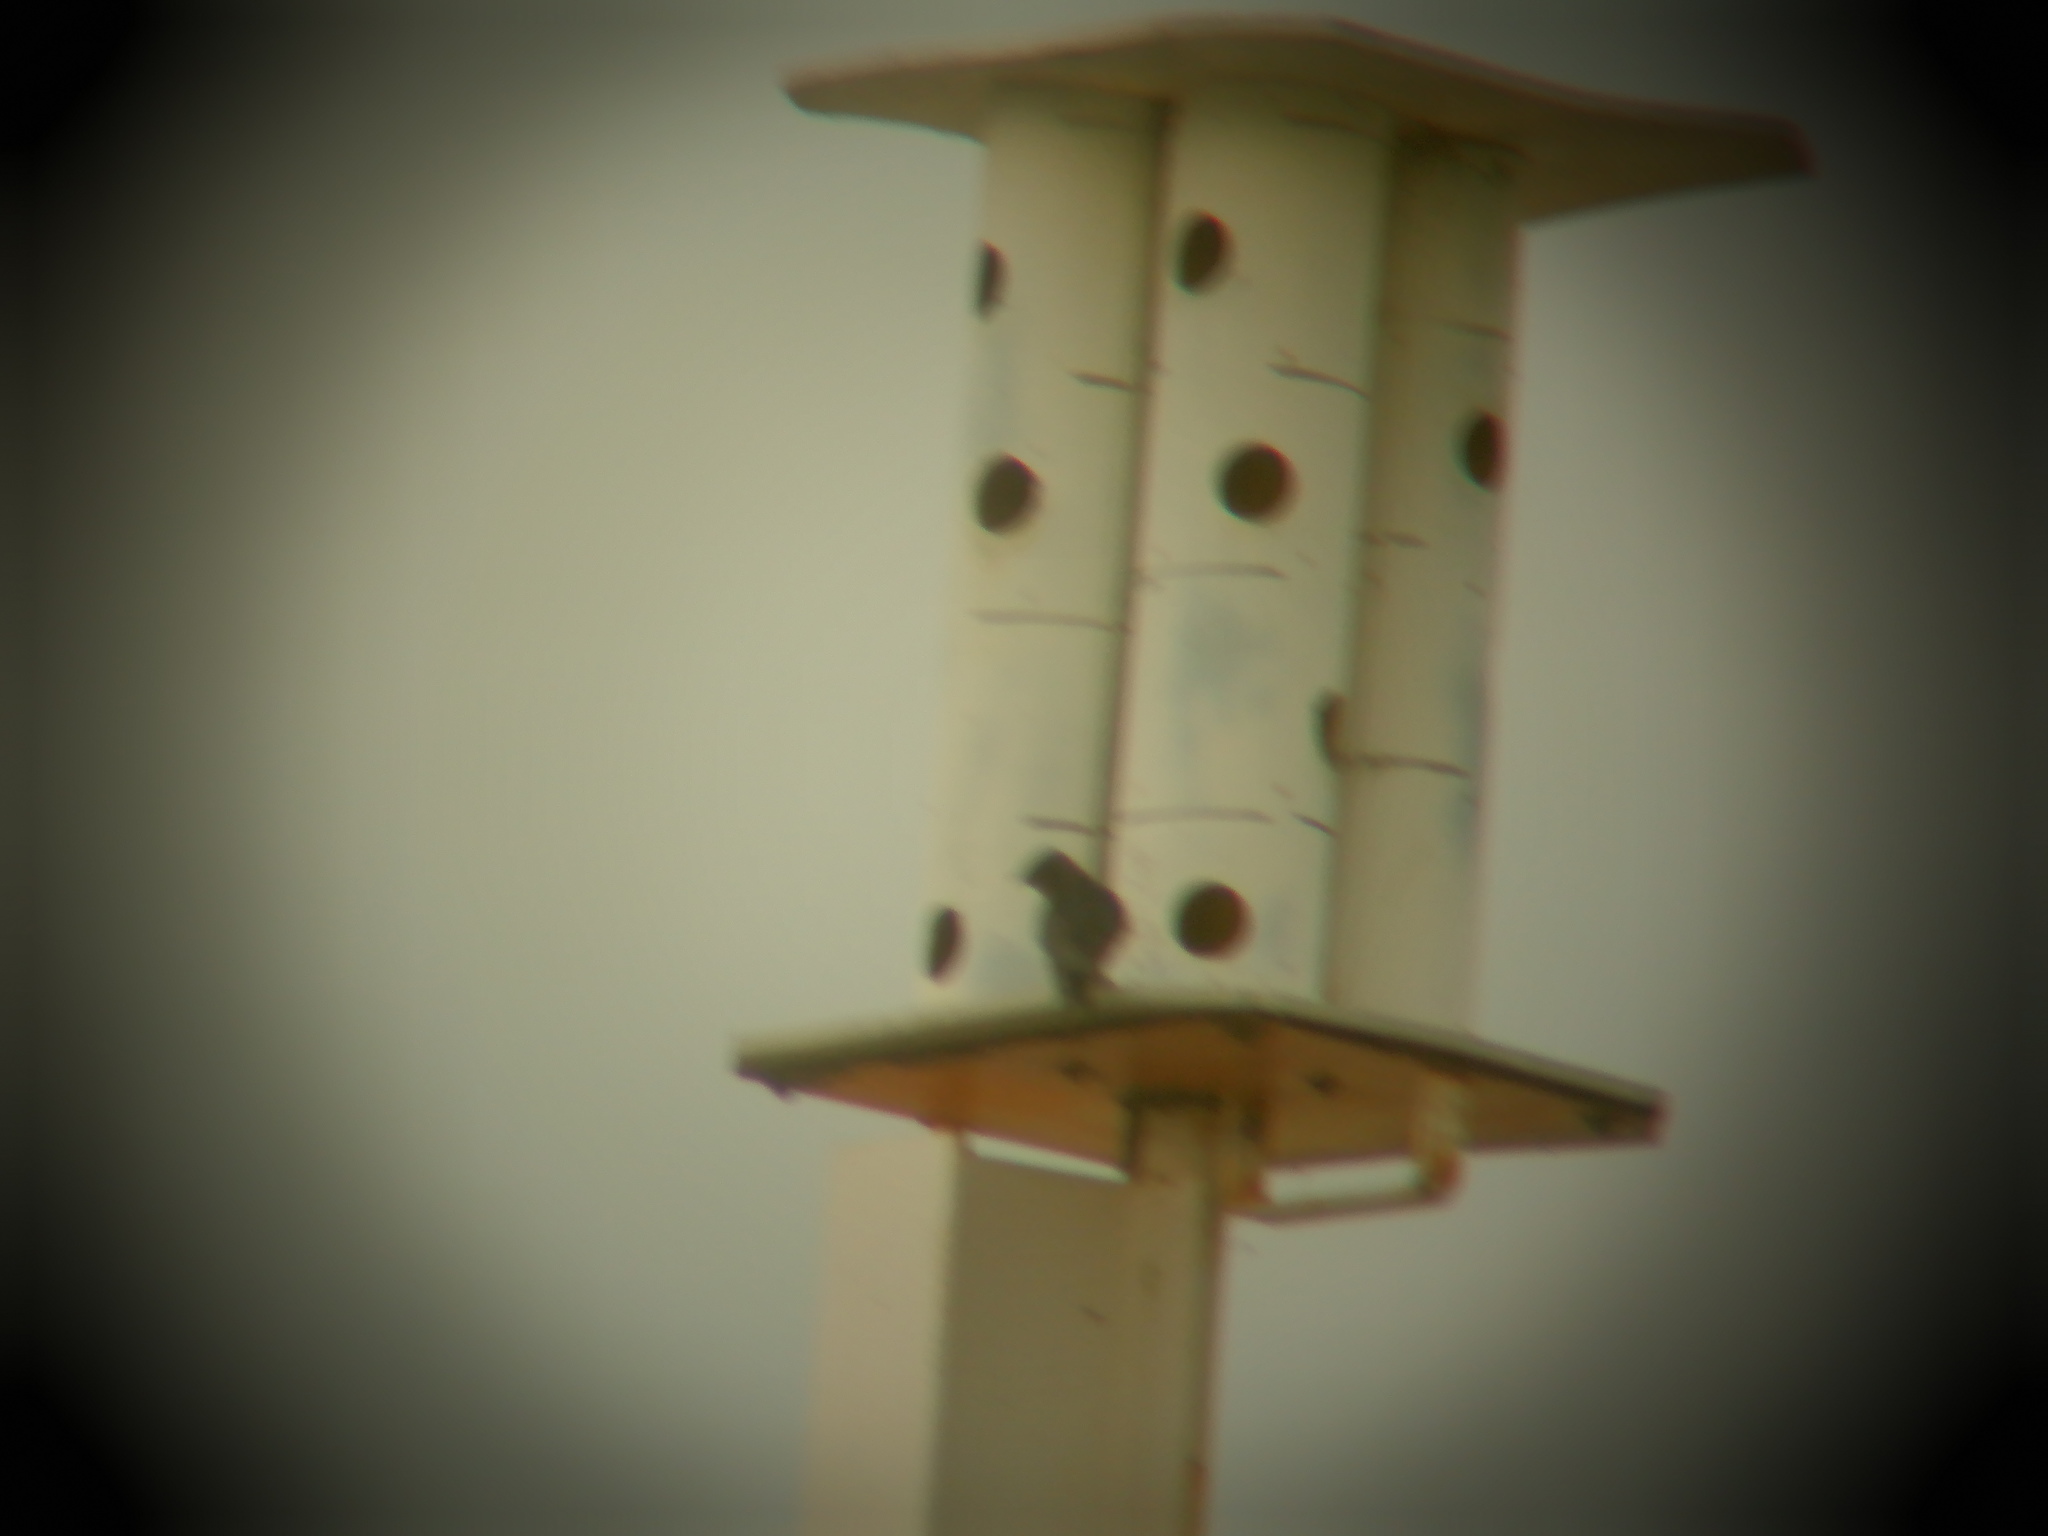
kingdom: Animalia
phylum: Chordata
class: Aves
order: Passeriformes
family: Hirundinidae
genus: Progne
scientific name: Progne subis
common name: Purple martin
